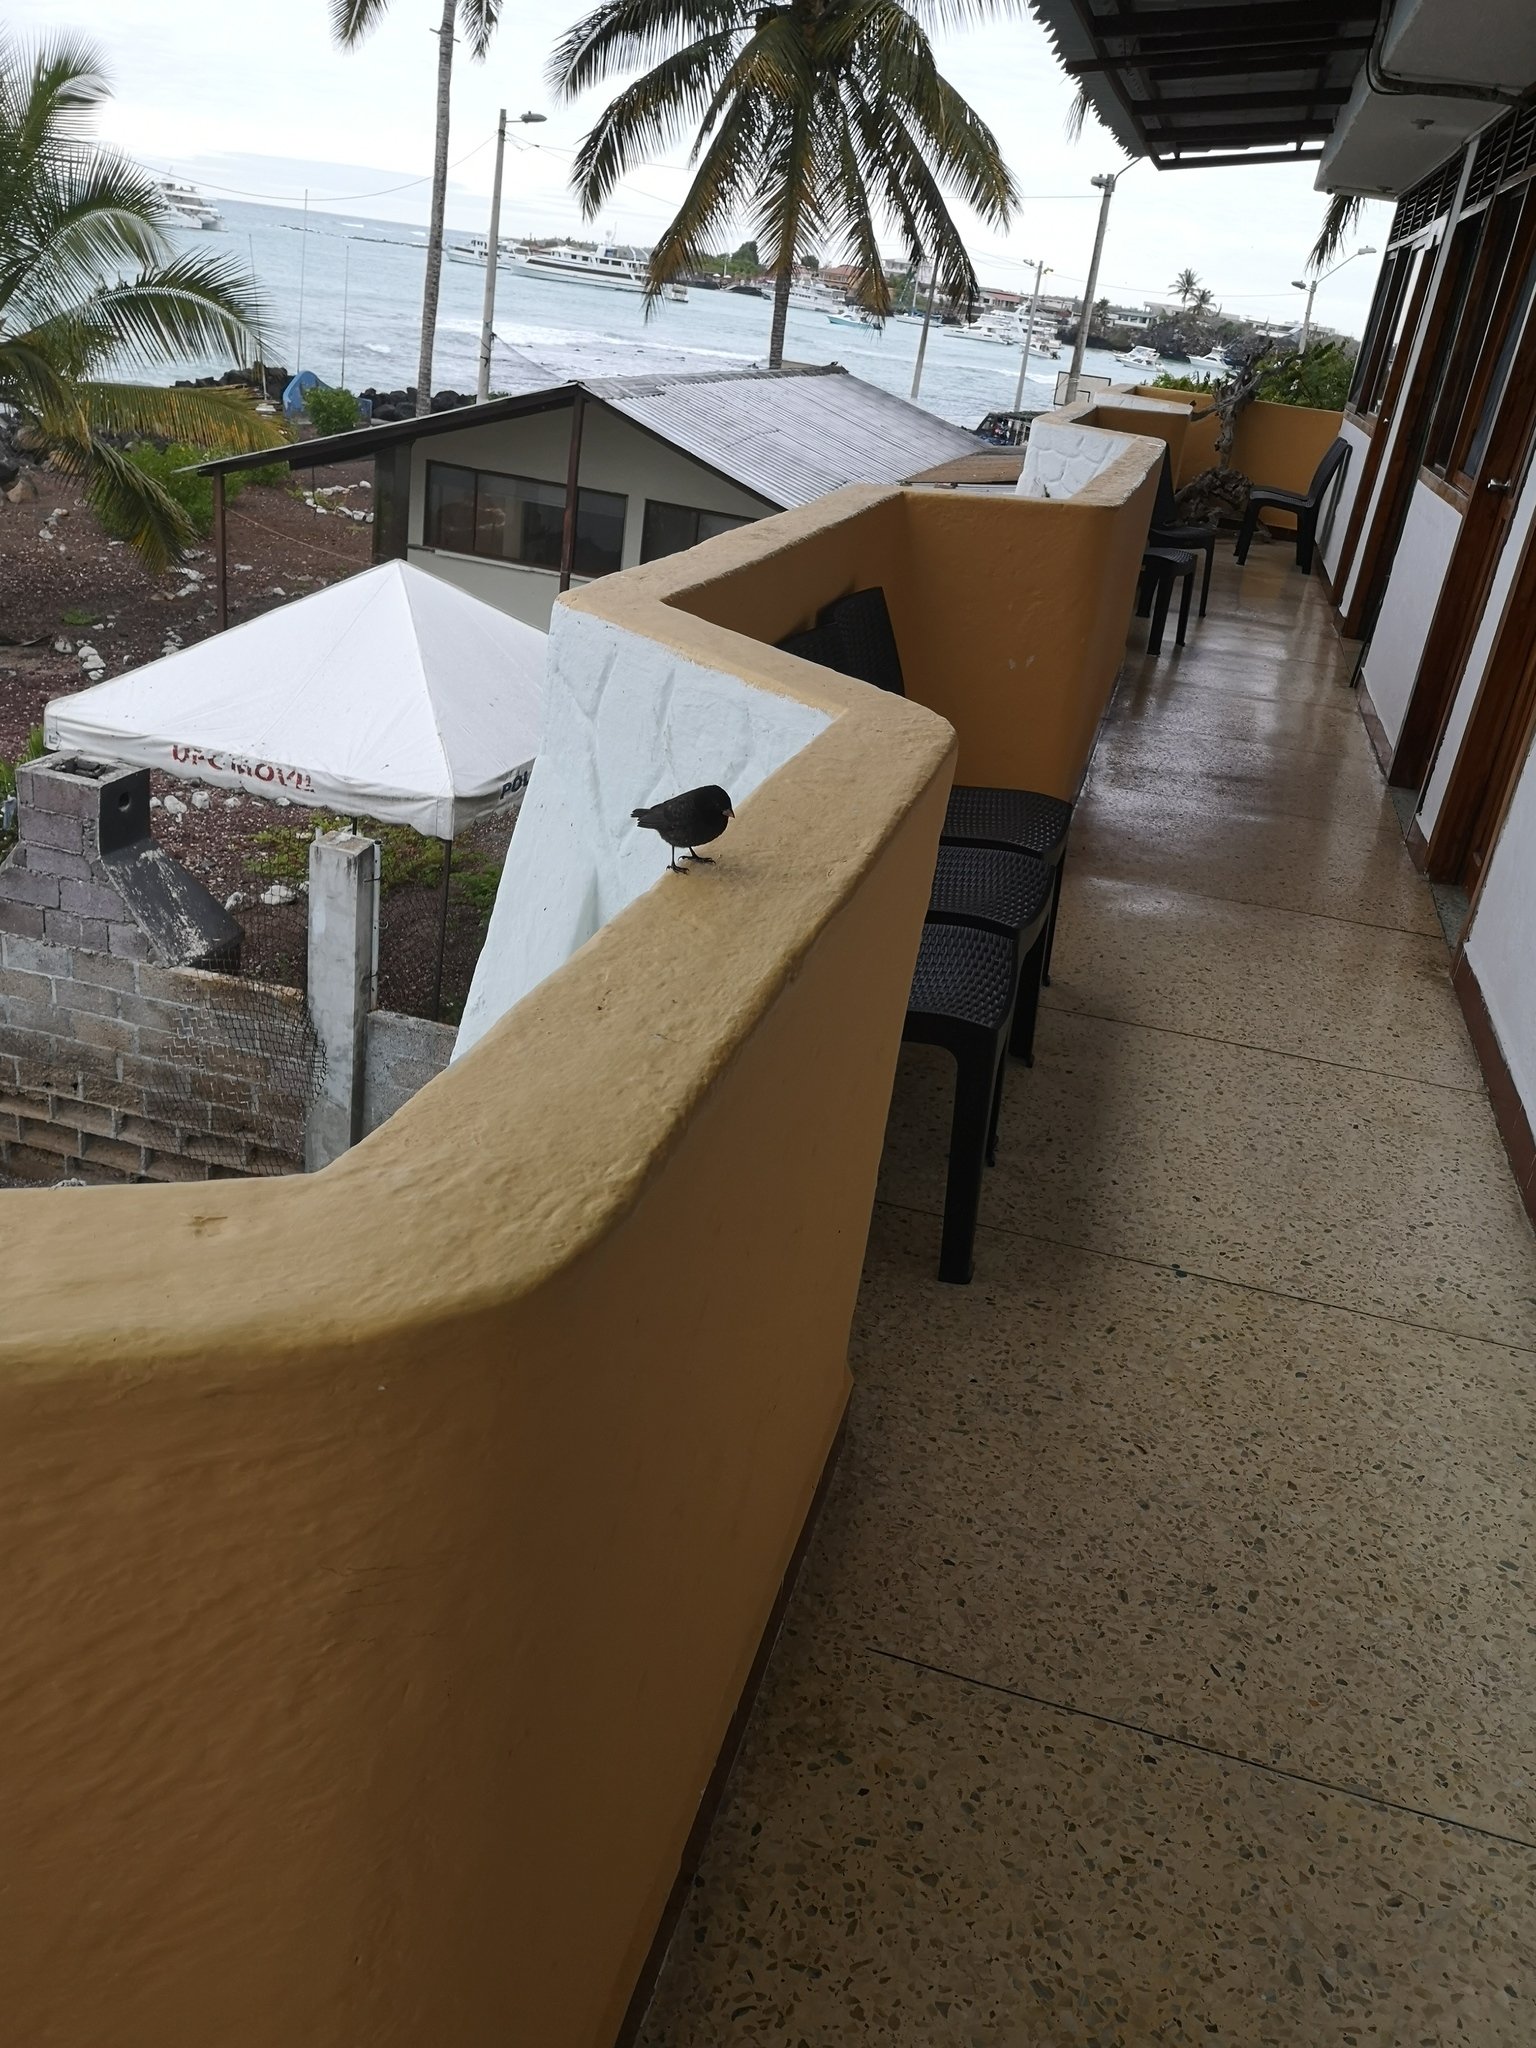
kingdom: Animalia
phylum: Chordata
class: Aves
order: Passeriformes
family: Thraupidae
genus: Geospiza
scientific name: Geospiza fuliginosa
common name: Small ground finch
